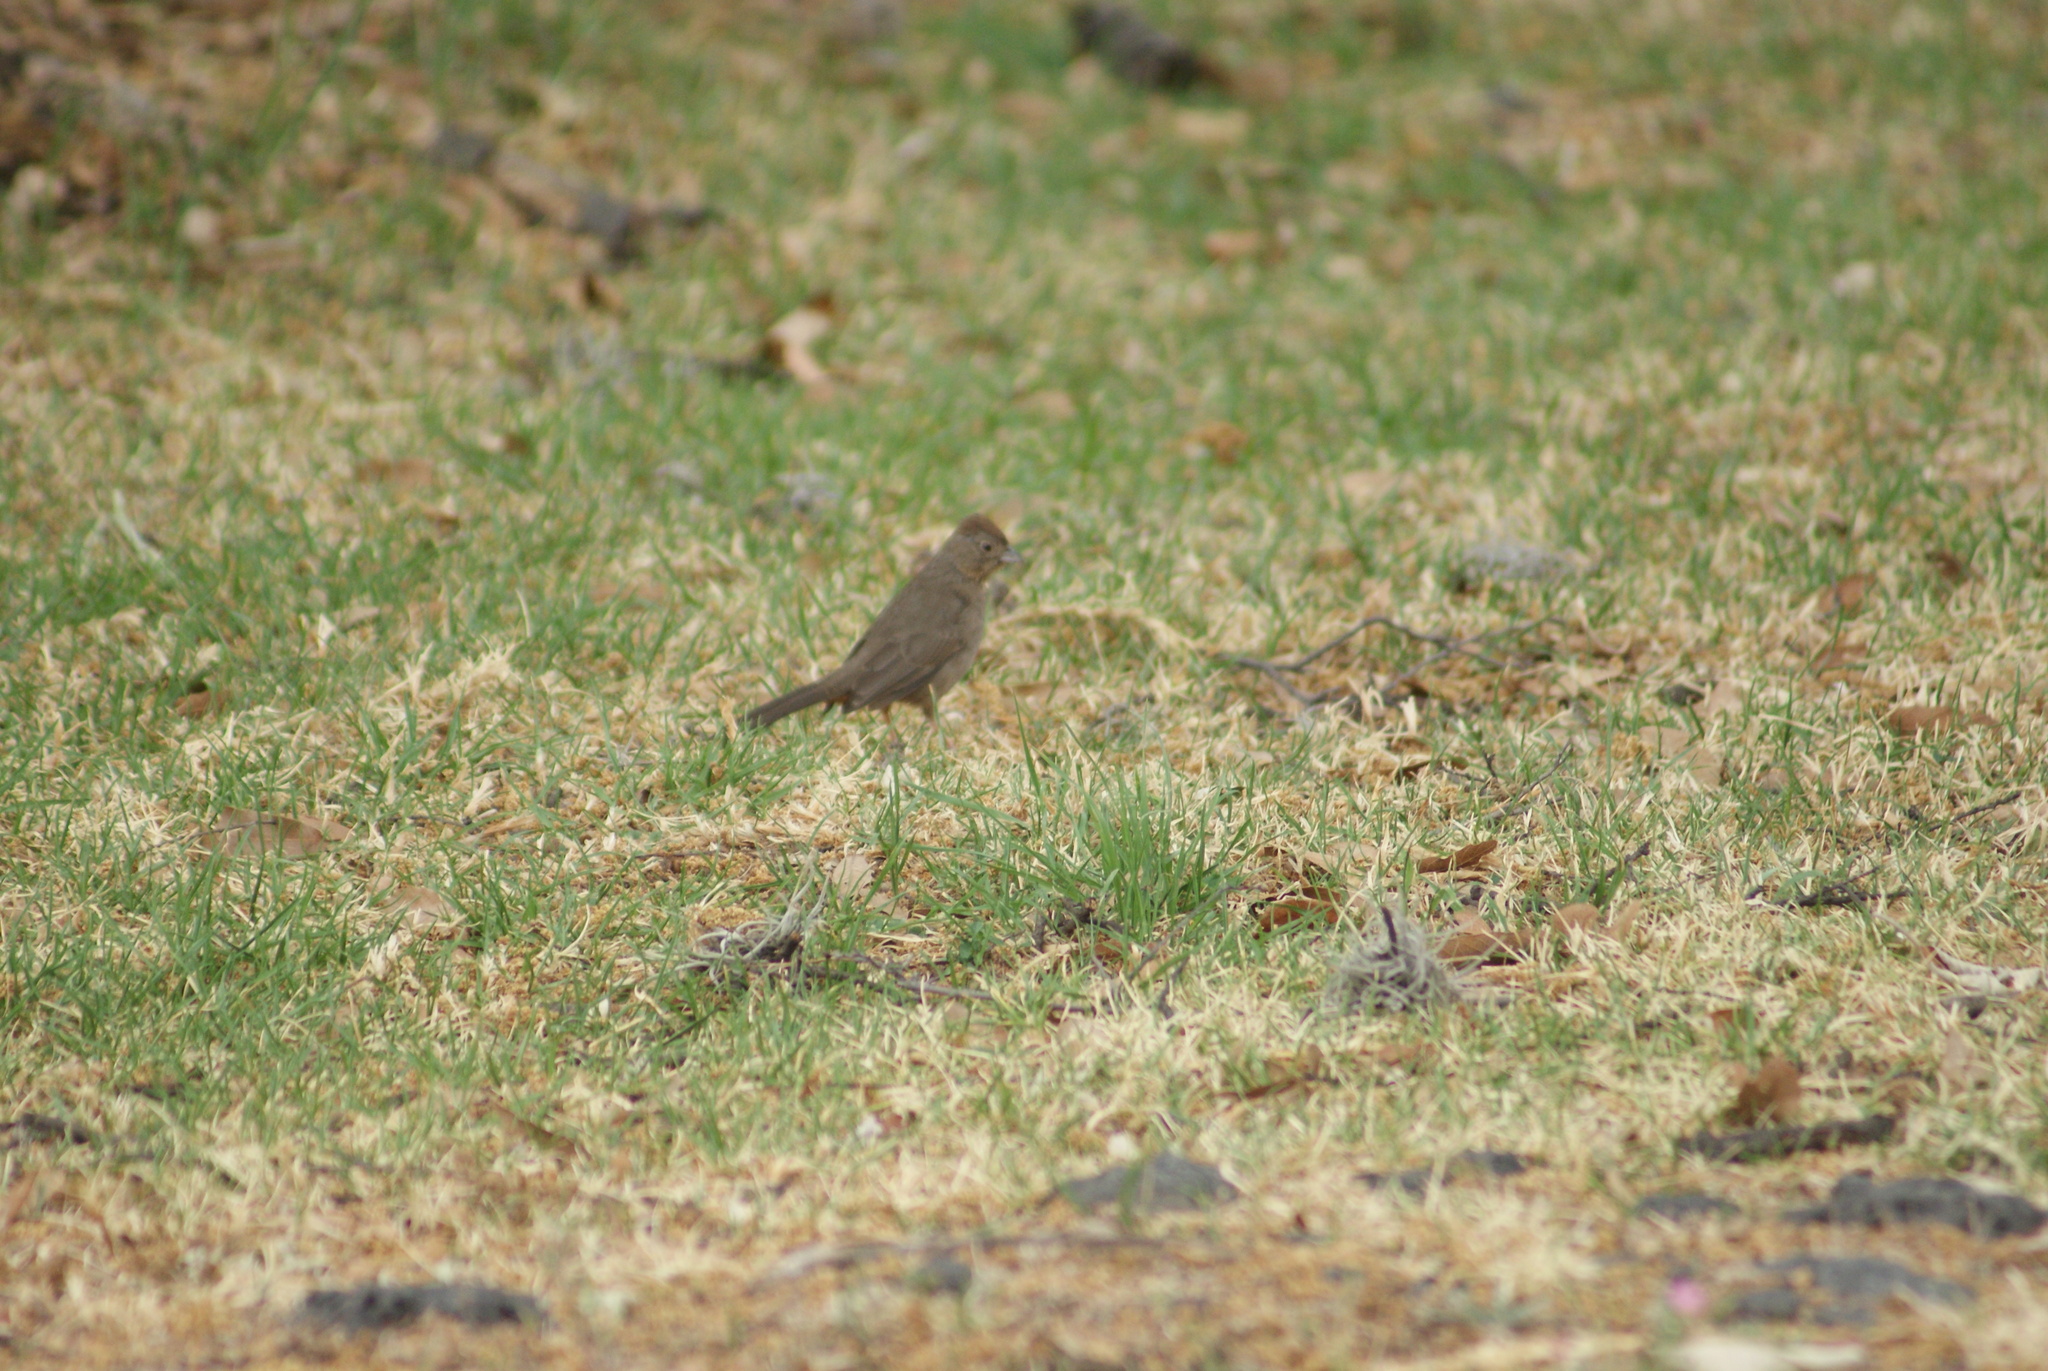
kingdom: Animalia
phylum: Chordata
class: Aves
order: Passeriformes
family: Passerellidae
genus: Melozone
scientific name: Melozone fusca
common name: Canyon towhee
